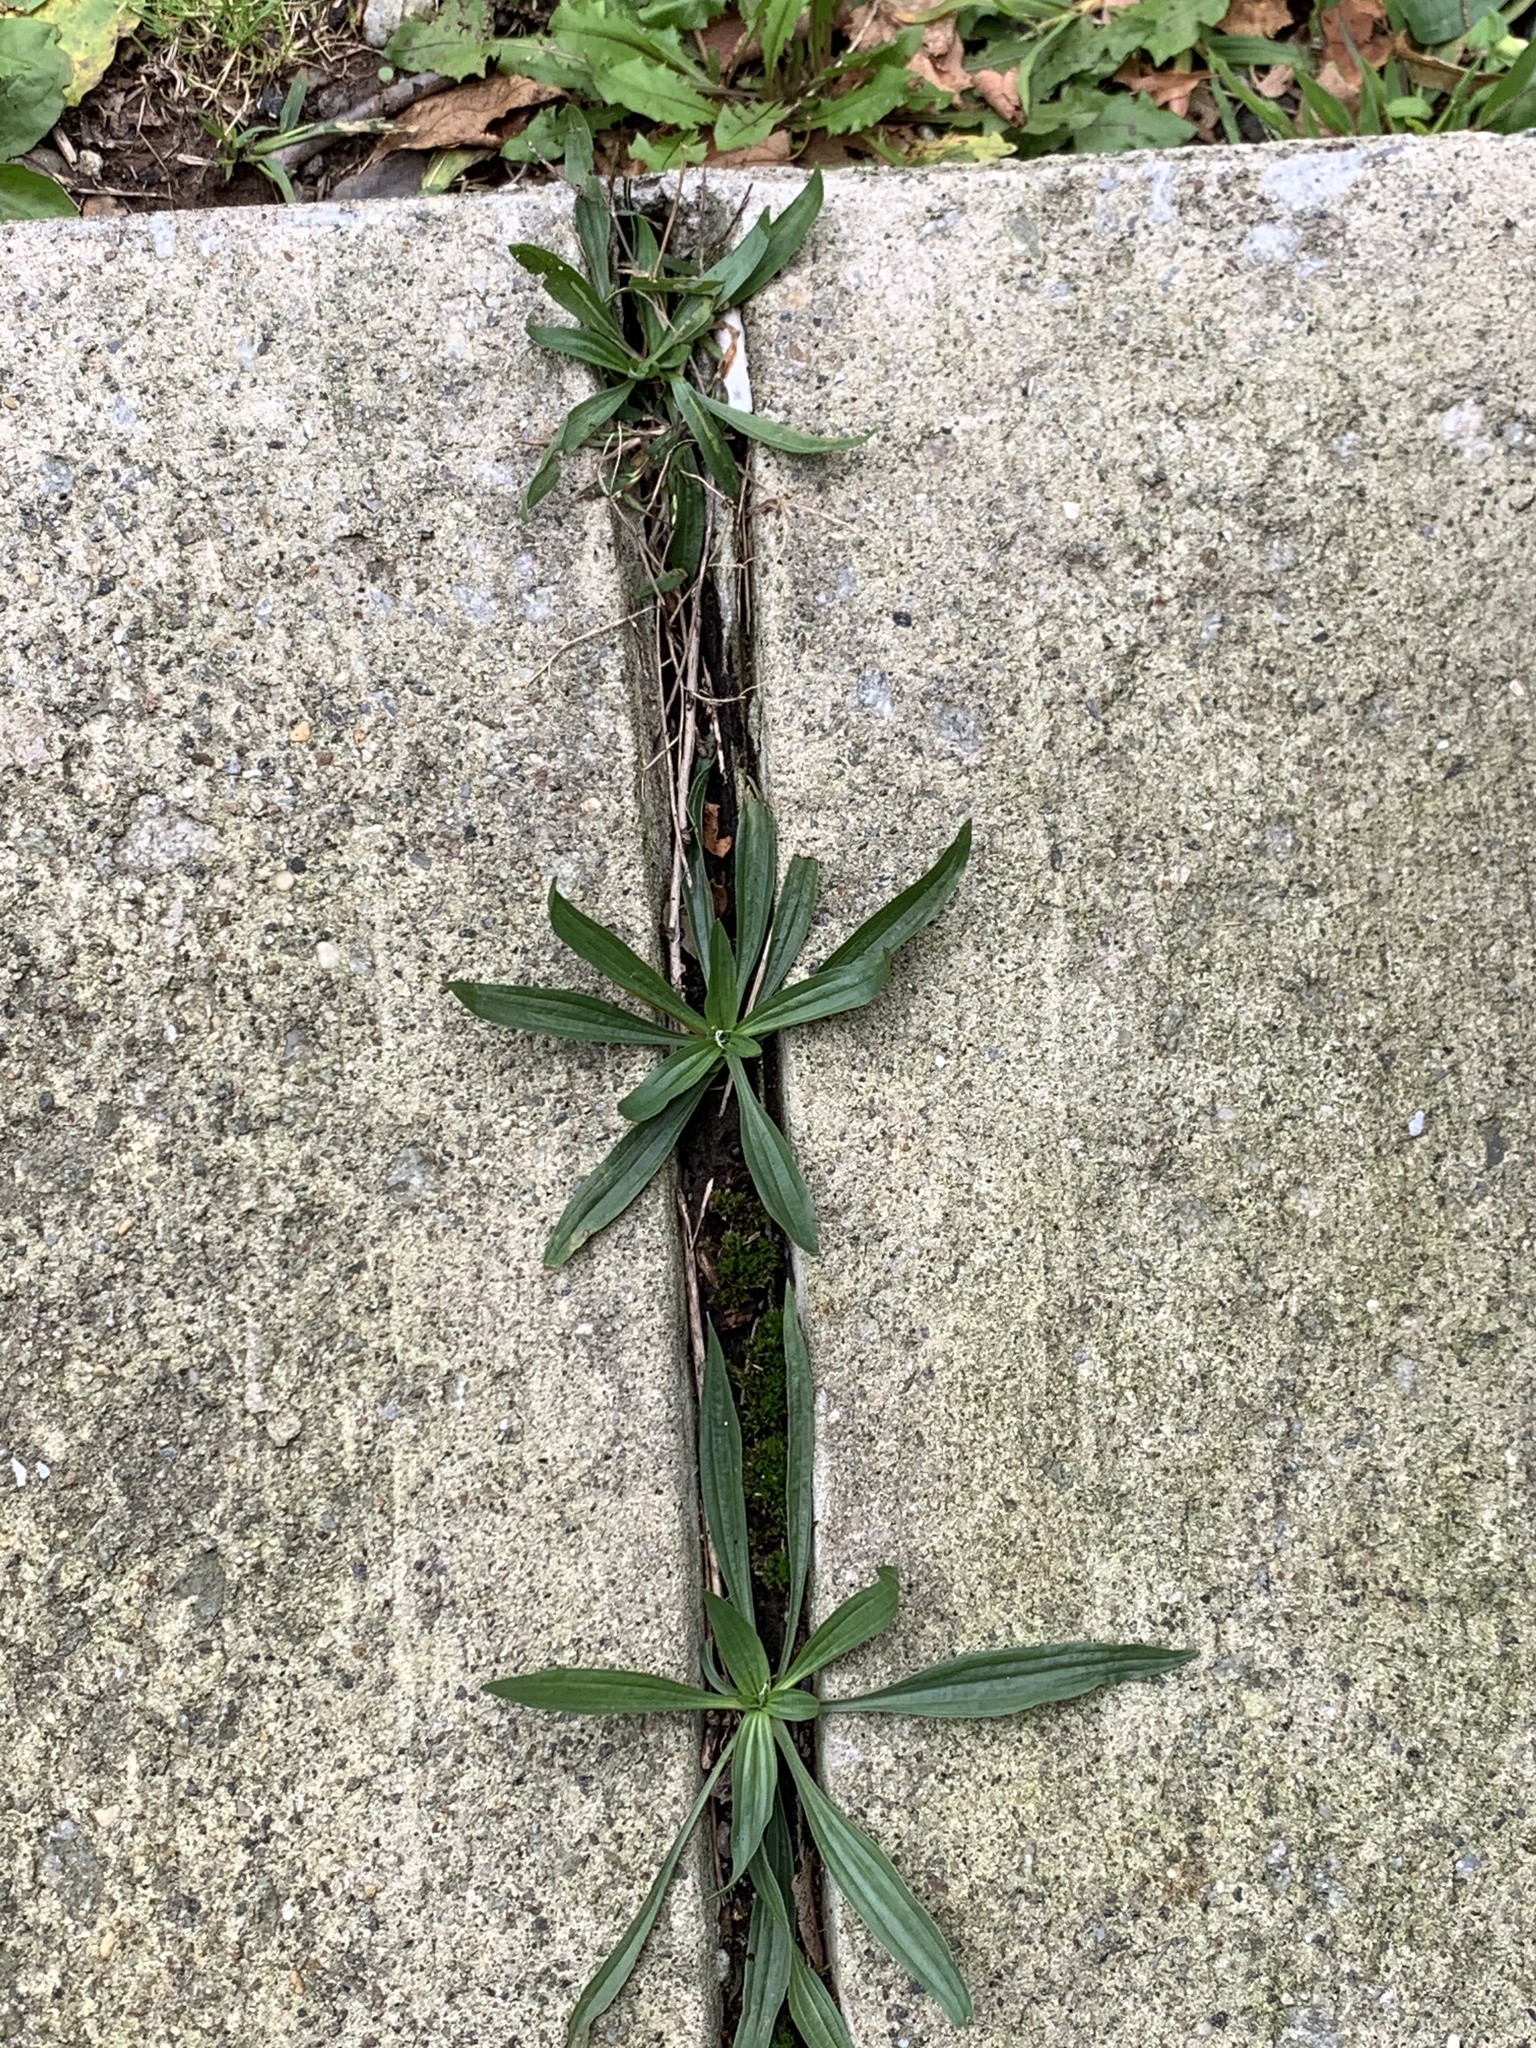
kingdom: Plantae
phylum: Tracheophyta
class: Magnoliopsida
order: Lamiales
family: Plantaginaceae
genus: Plantago
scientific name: Plantago lanceolata
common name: Ribwort plantain
